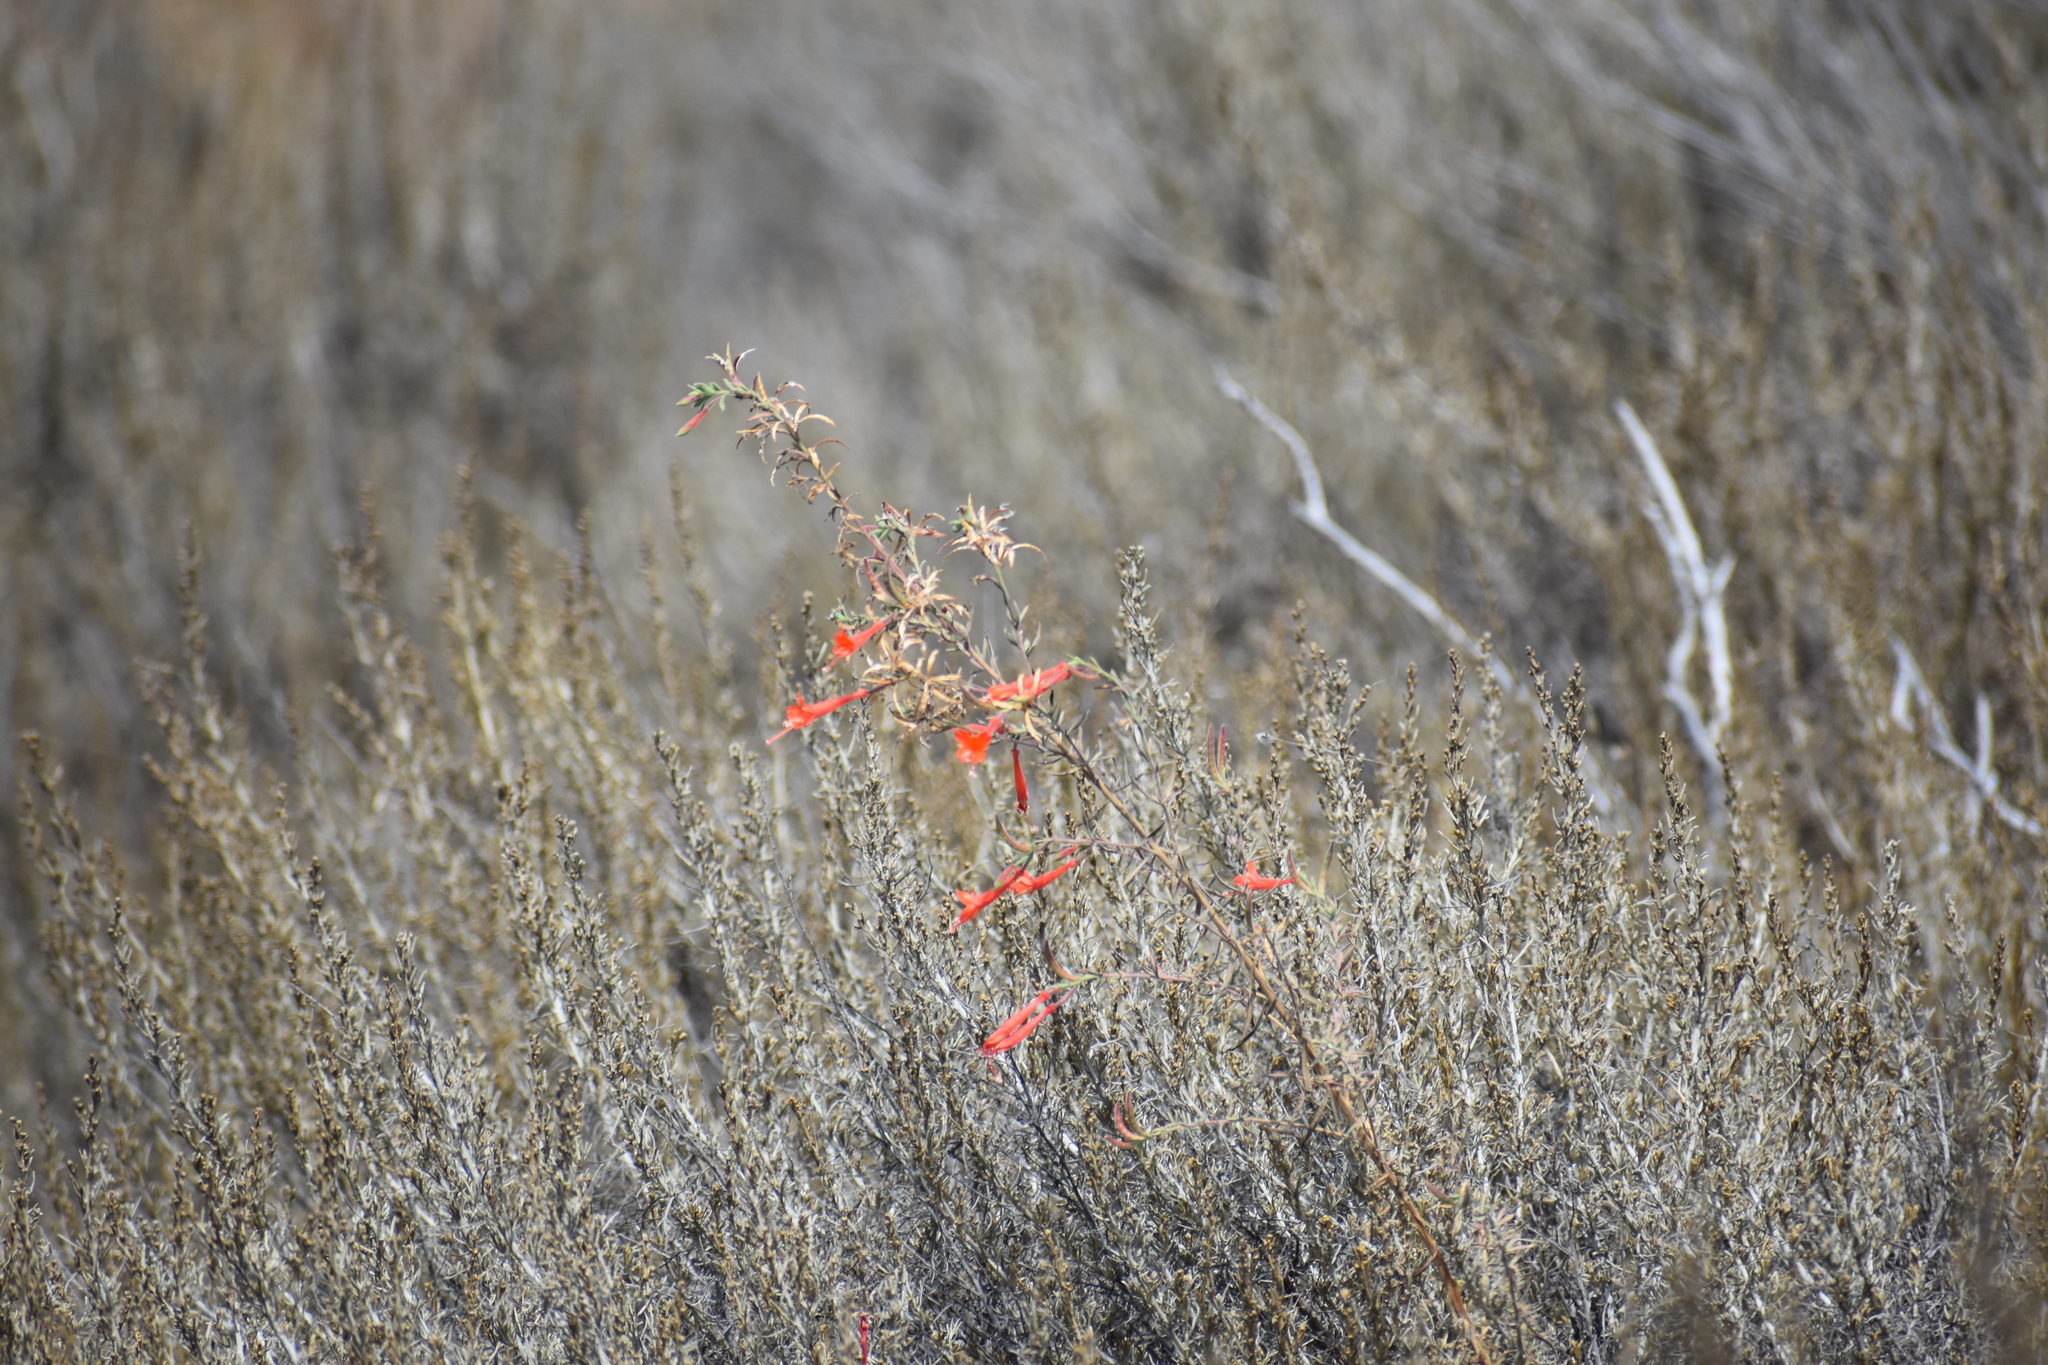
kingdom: Plantae
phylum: Tracheophyta
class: Magnoliopsida
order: Myrtales
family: Onagraceae
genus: Epilobium
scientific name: Epilobium canum
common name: California-fuchsia
